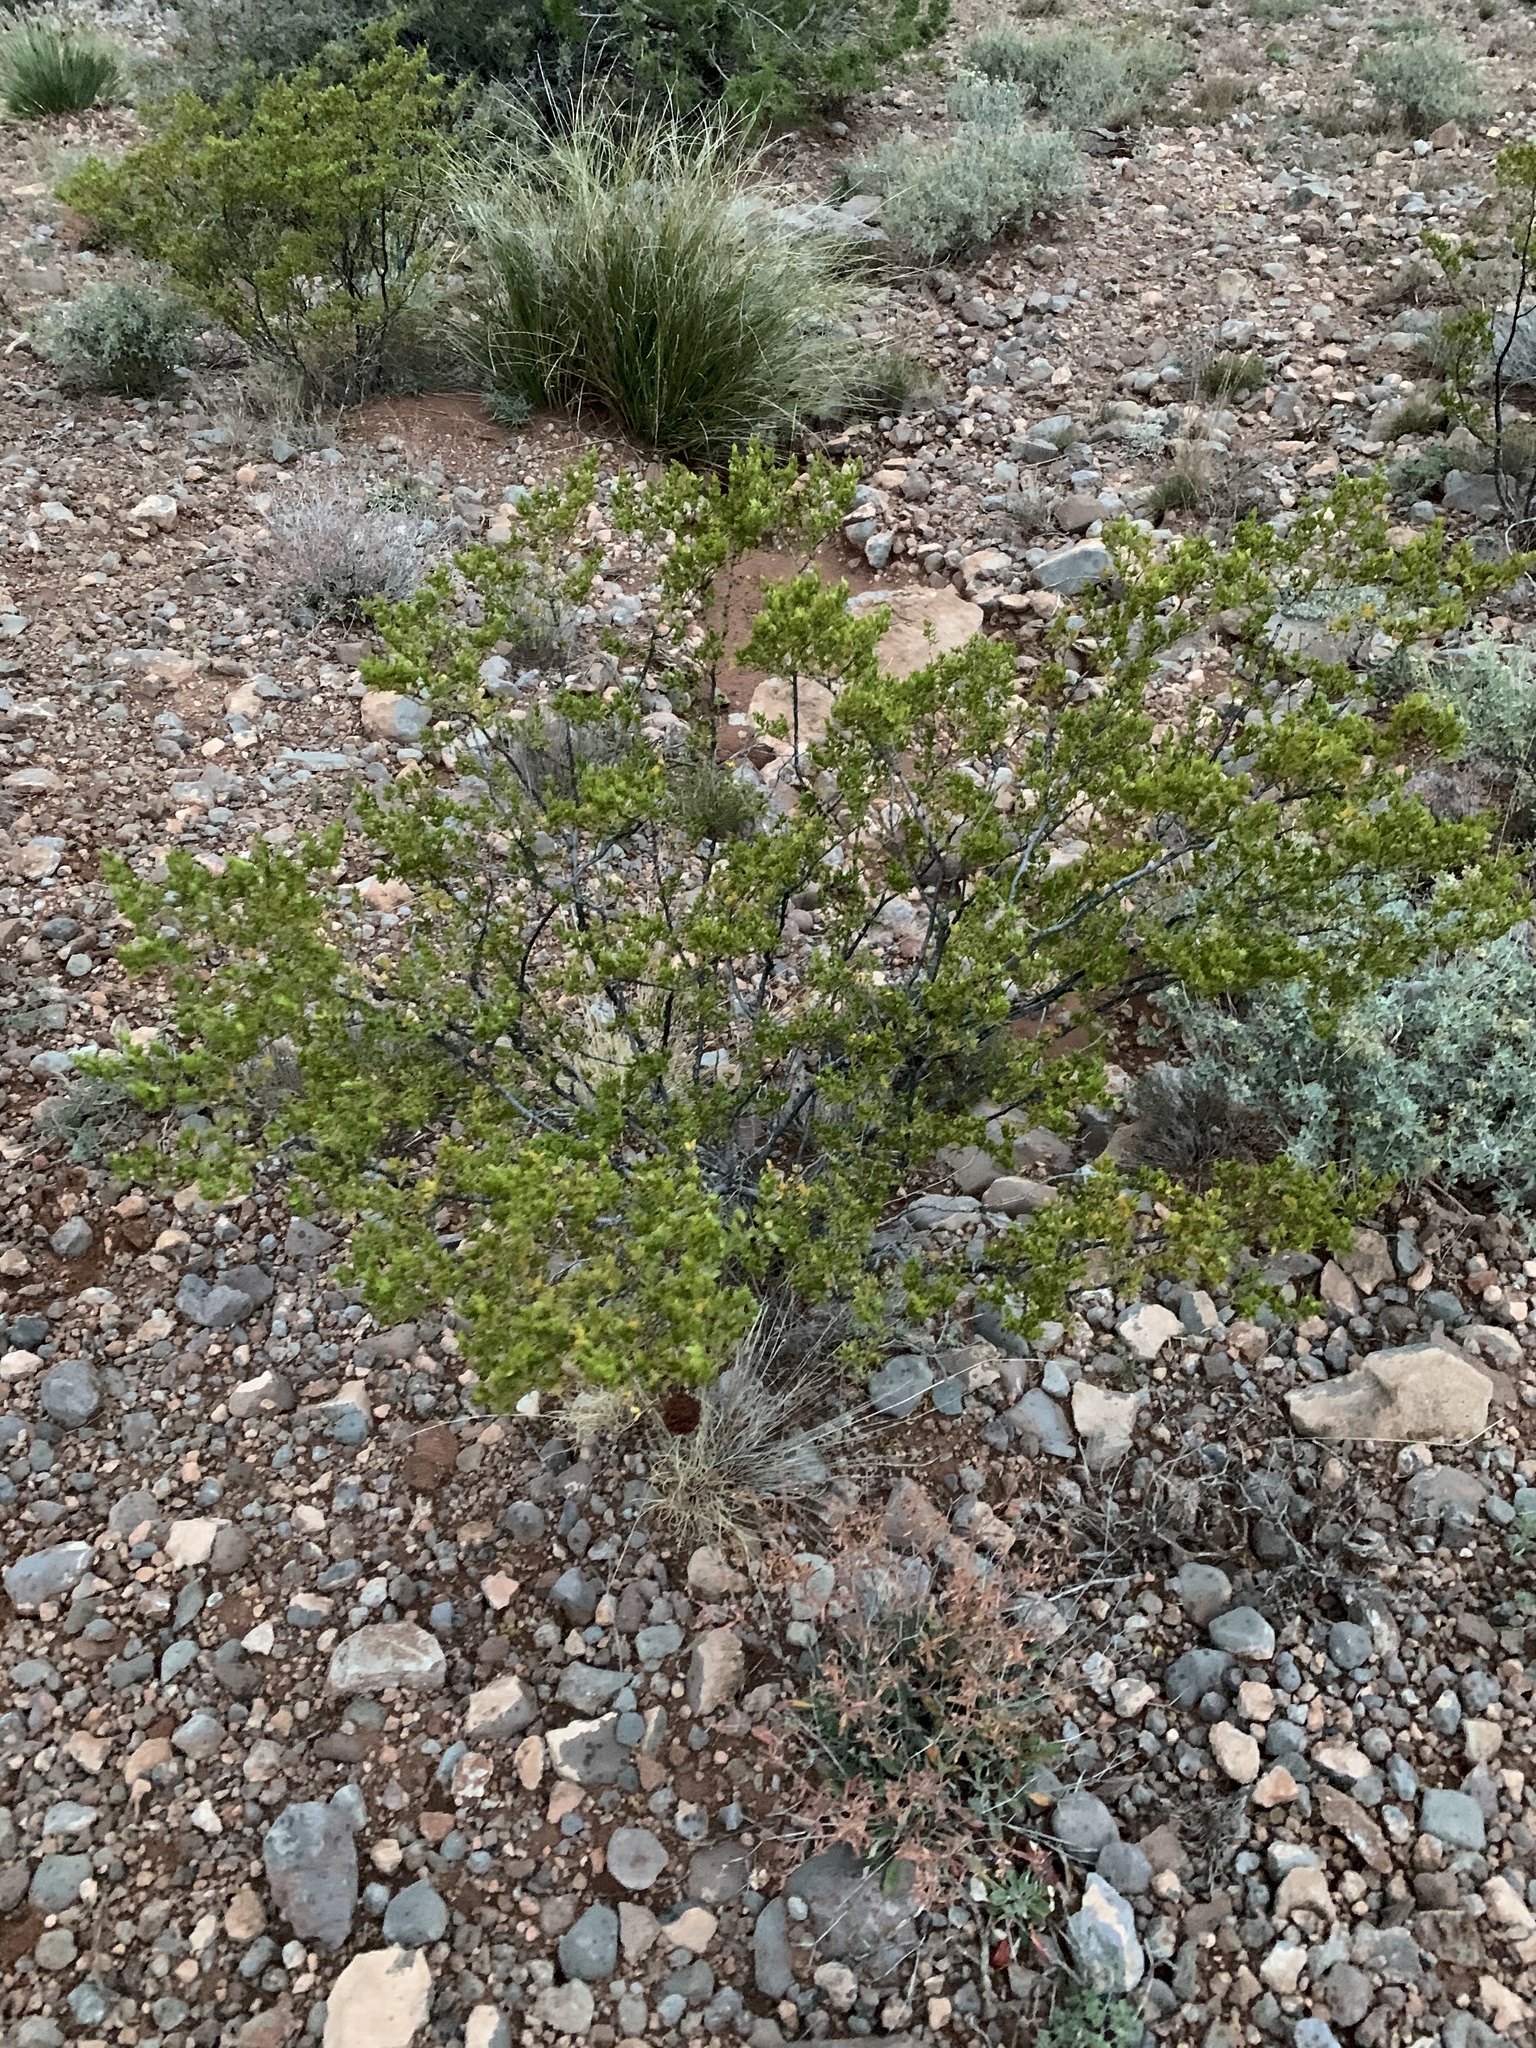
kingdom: Plantae
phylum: Tracheophyta
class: Magnoliopsida
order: Zygophyllales
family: Zygophyllaceae
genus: Larrea
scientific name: Larrea tridentata
